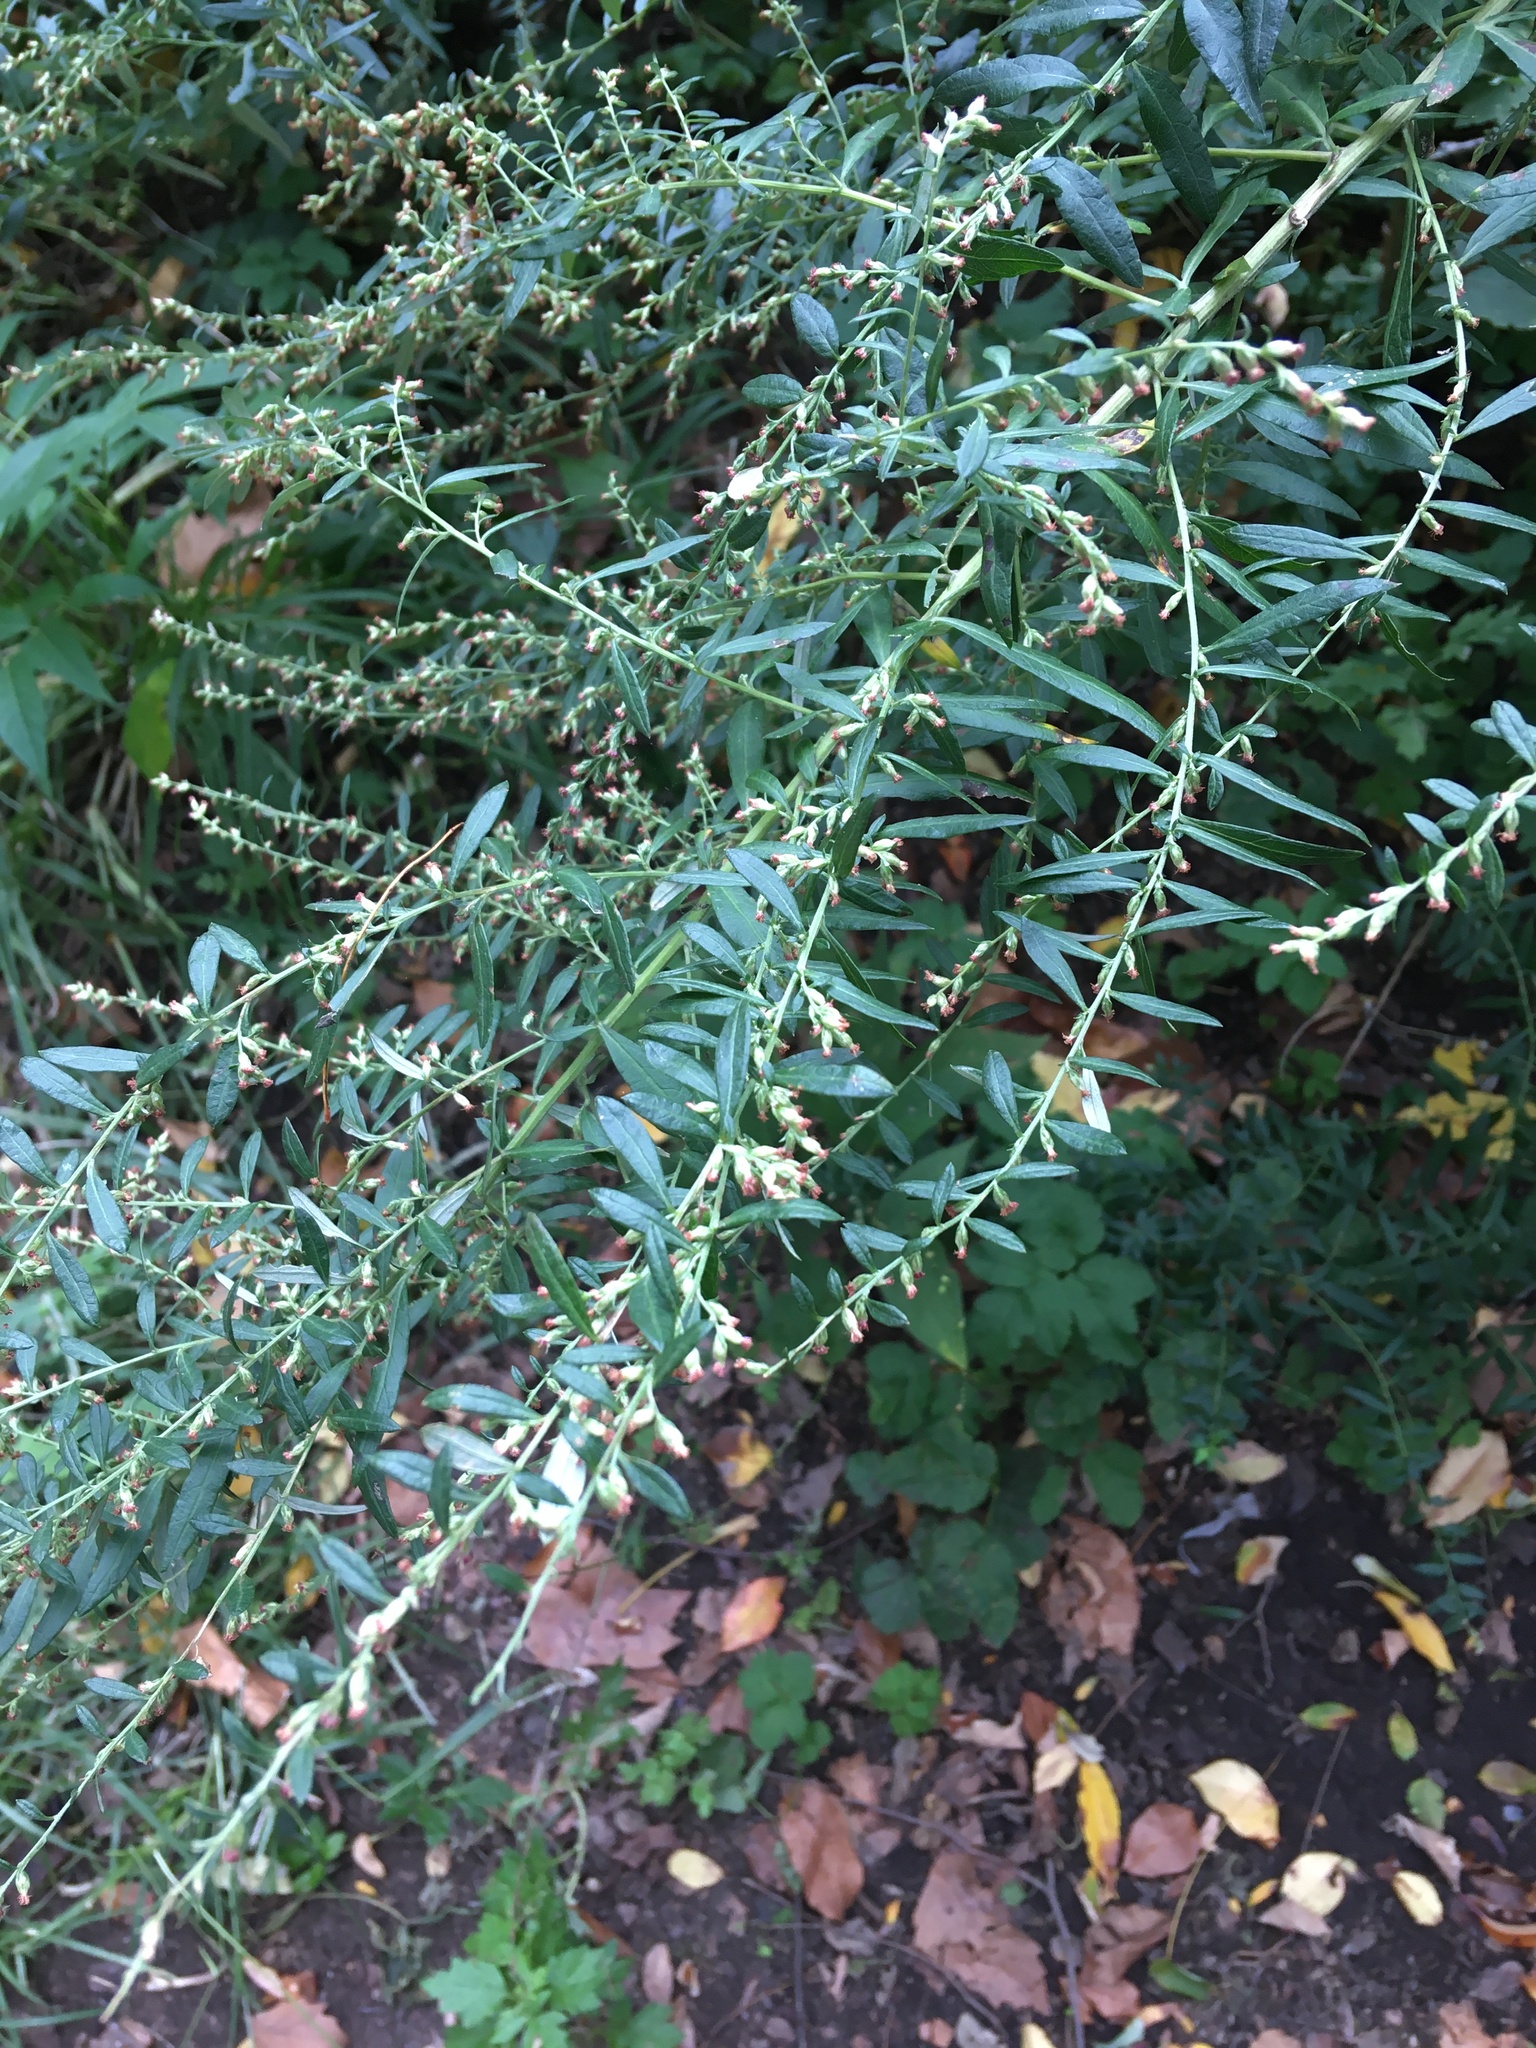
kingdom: Plantae
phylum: Tracheophyta
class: Magnoliopsida
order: Asterales
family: Asteraceae
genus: Artemisia
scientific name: Artemisia vulgaris
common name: Mugwort
